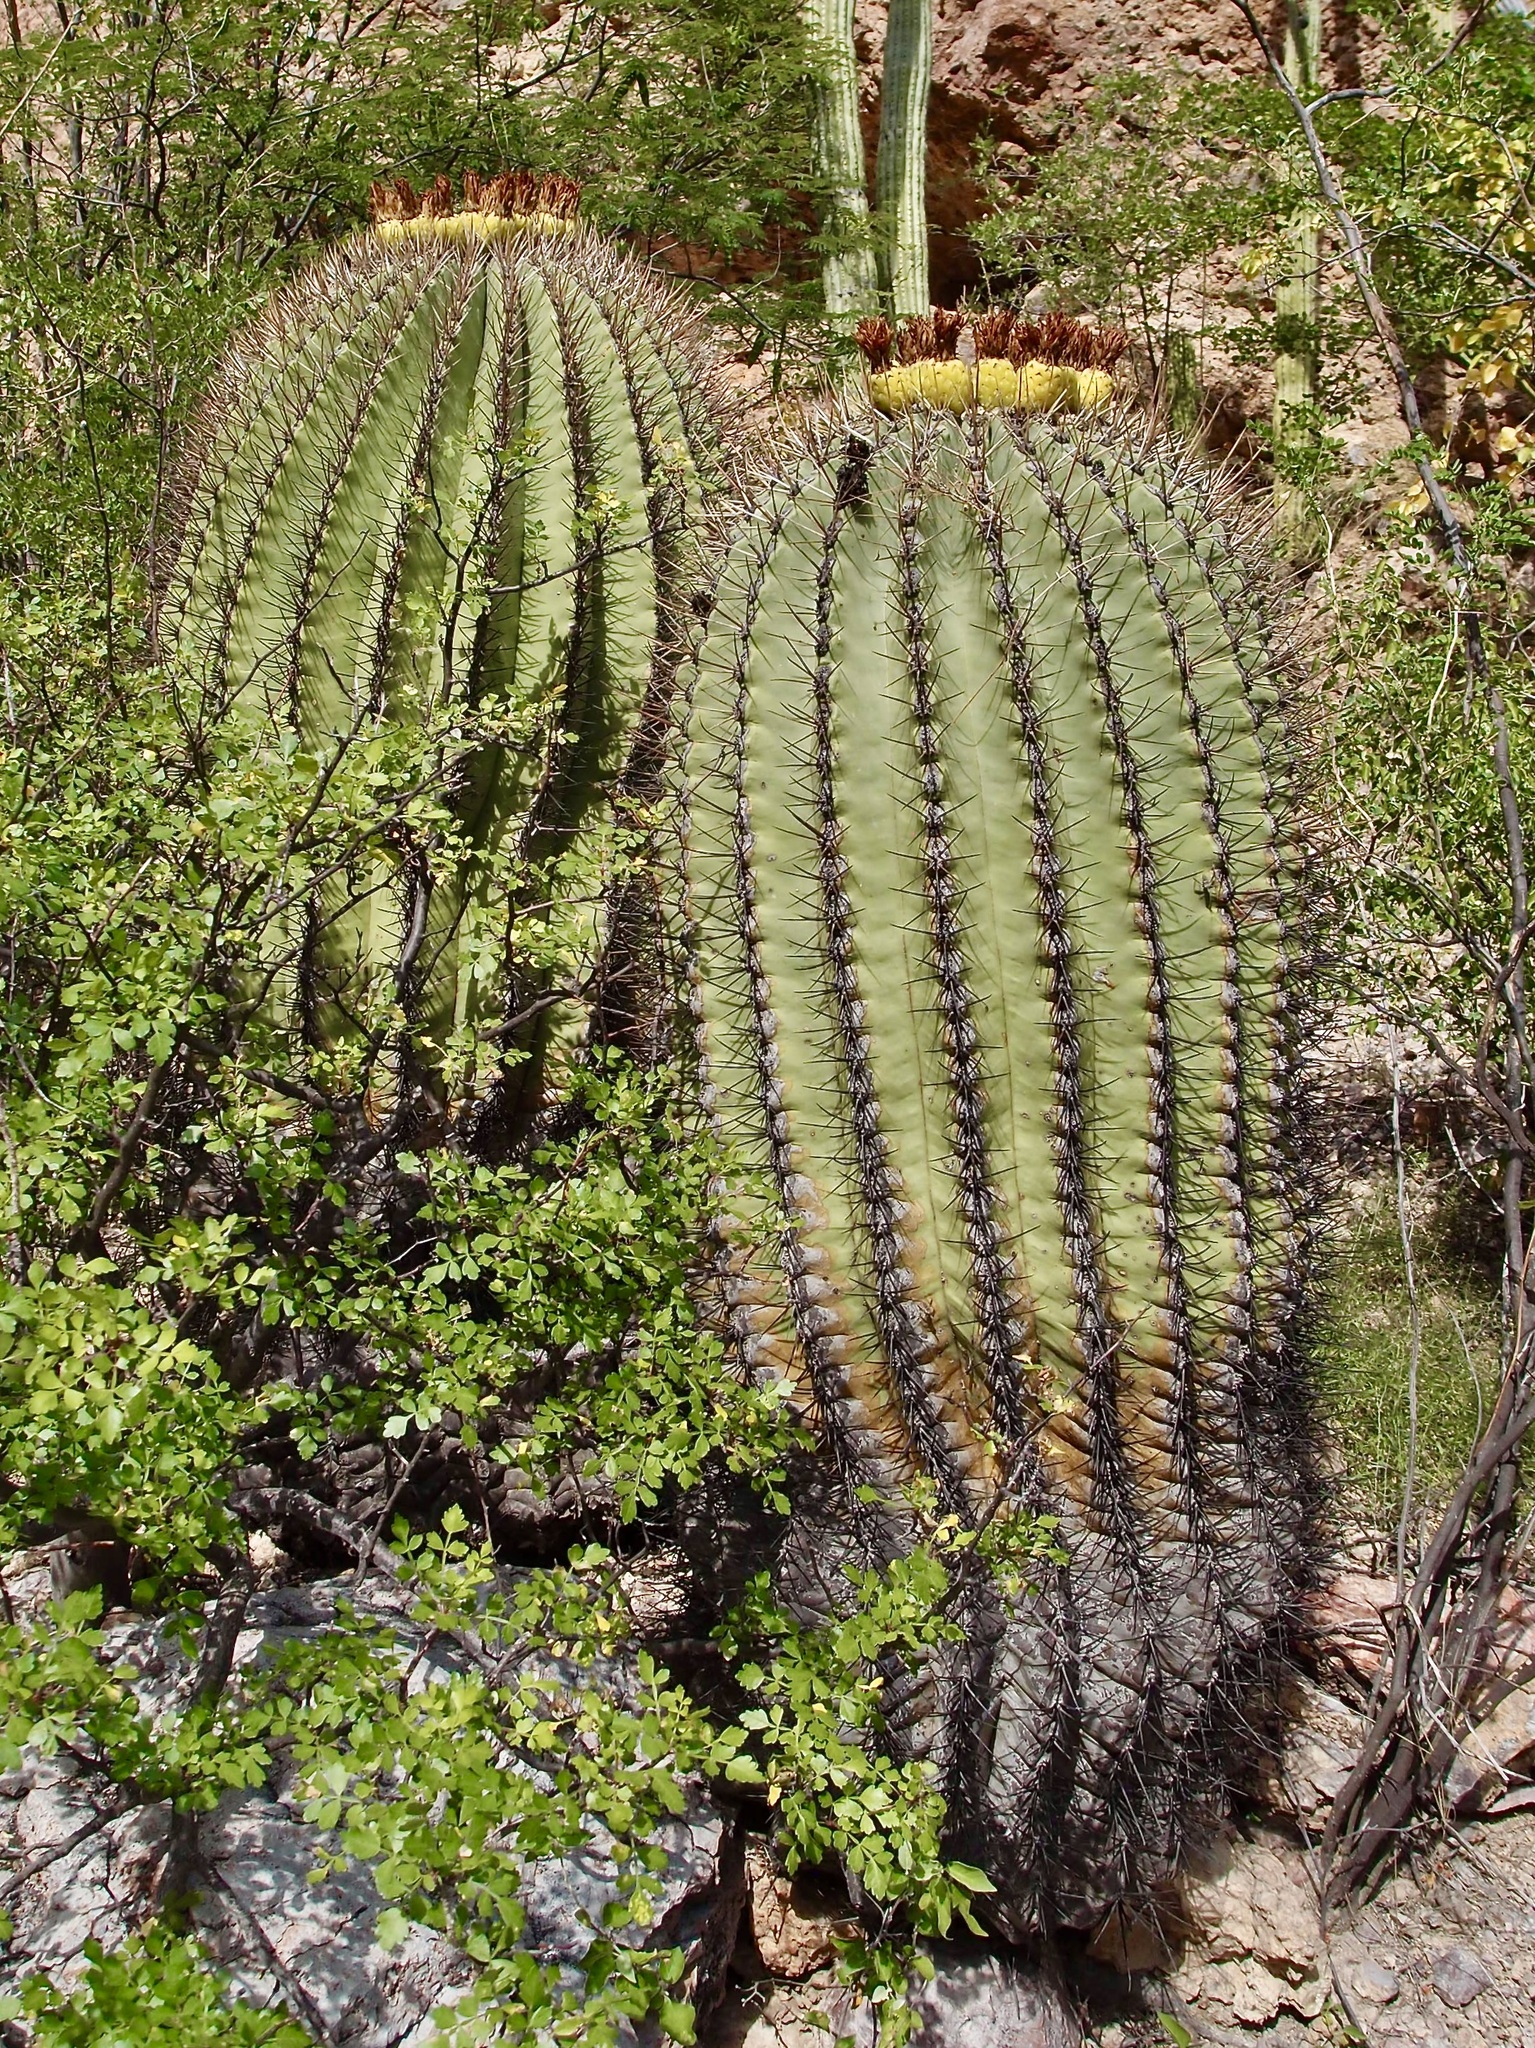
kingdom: Plantae
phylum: Tracheophyta
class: Magnoliopsida
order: Caryophyllales
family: Cactaceae
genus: Ferocactus
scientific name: Ferocactus emoryi
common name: Emory's barrel cactus
